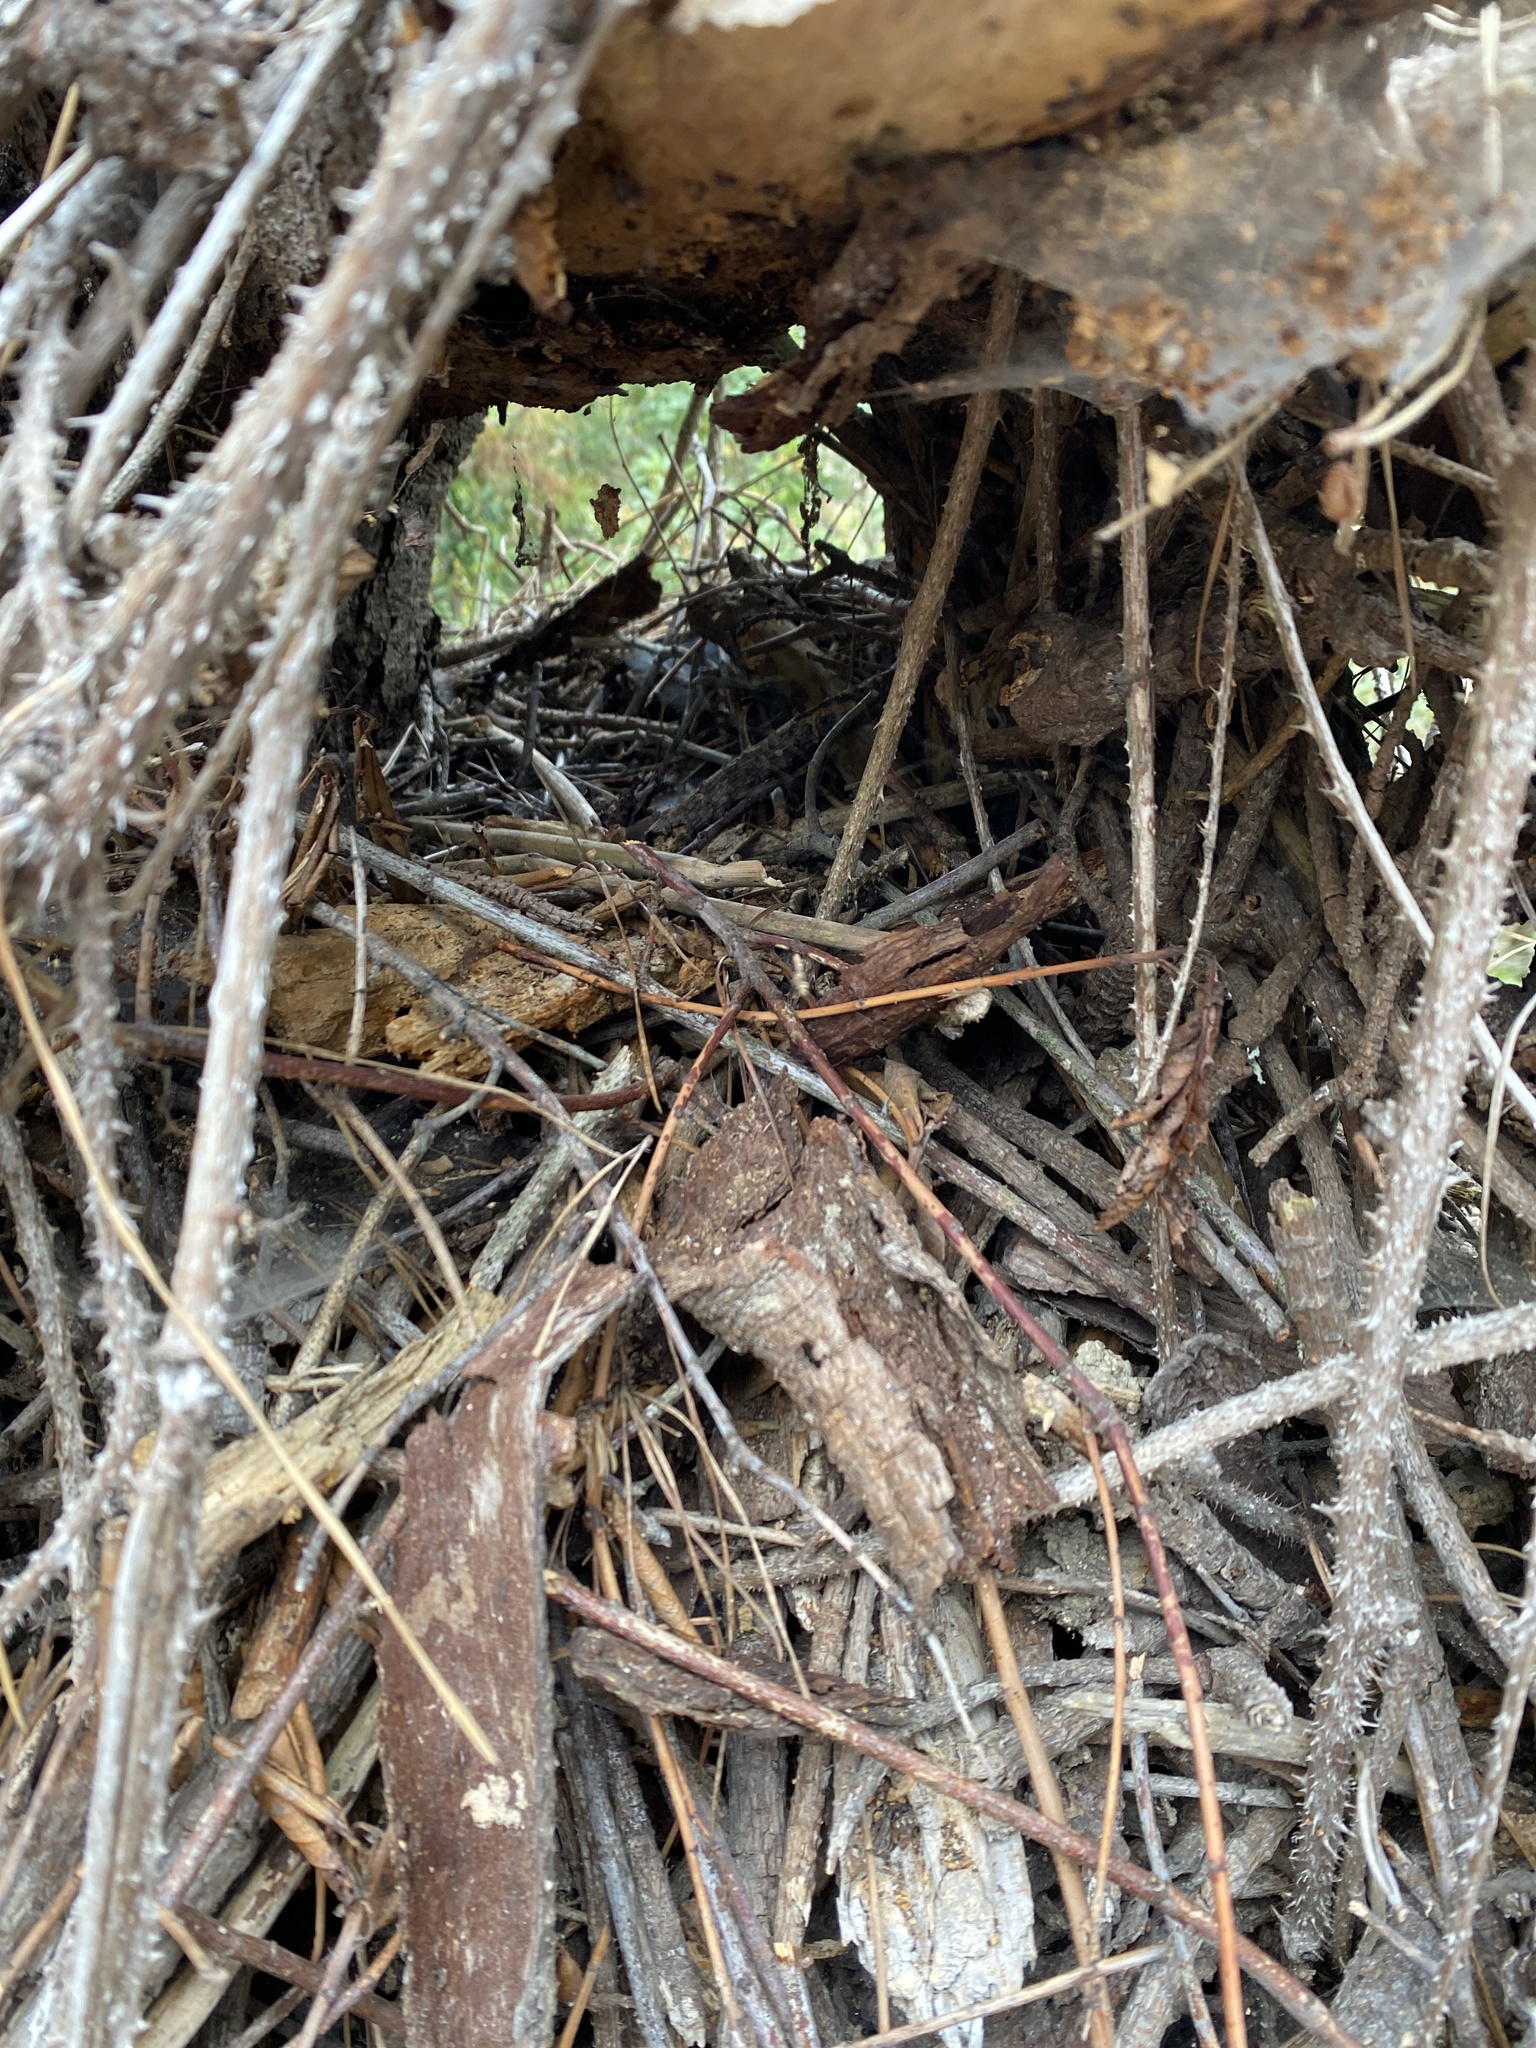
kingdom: Animalia
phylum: Chordata
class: Mammalia
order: Rodentia
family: Cricetidae
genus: Neotoma
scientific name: Neotoma fuscipes
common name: Dusky-footed woodrat
